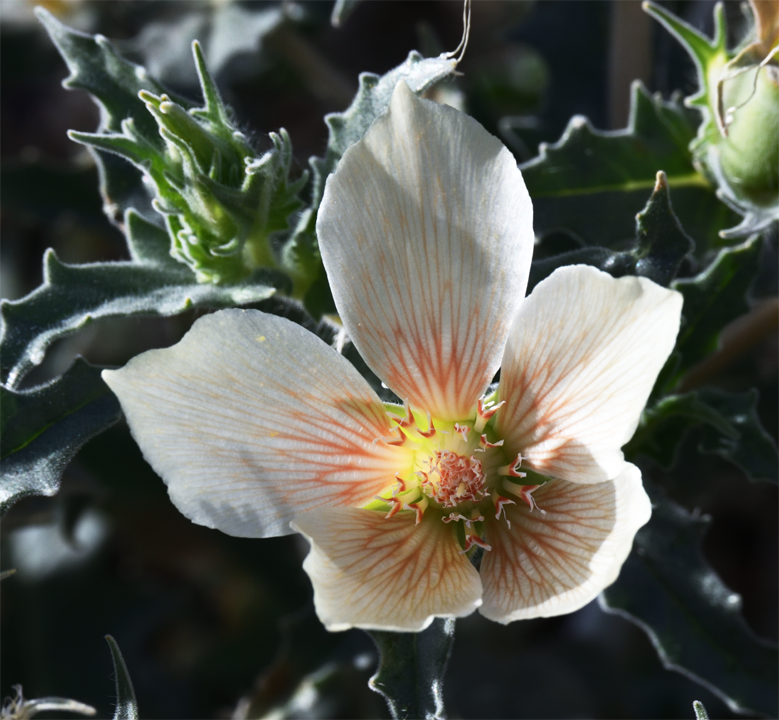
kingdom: Plantae
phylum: Tracheophyta
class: Magnoliopsida
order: Cornales
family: Loasaceae
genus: Mentzelia
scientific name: Mentzelia involucrata
